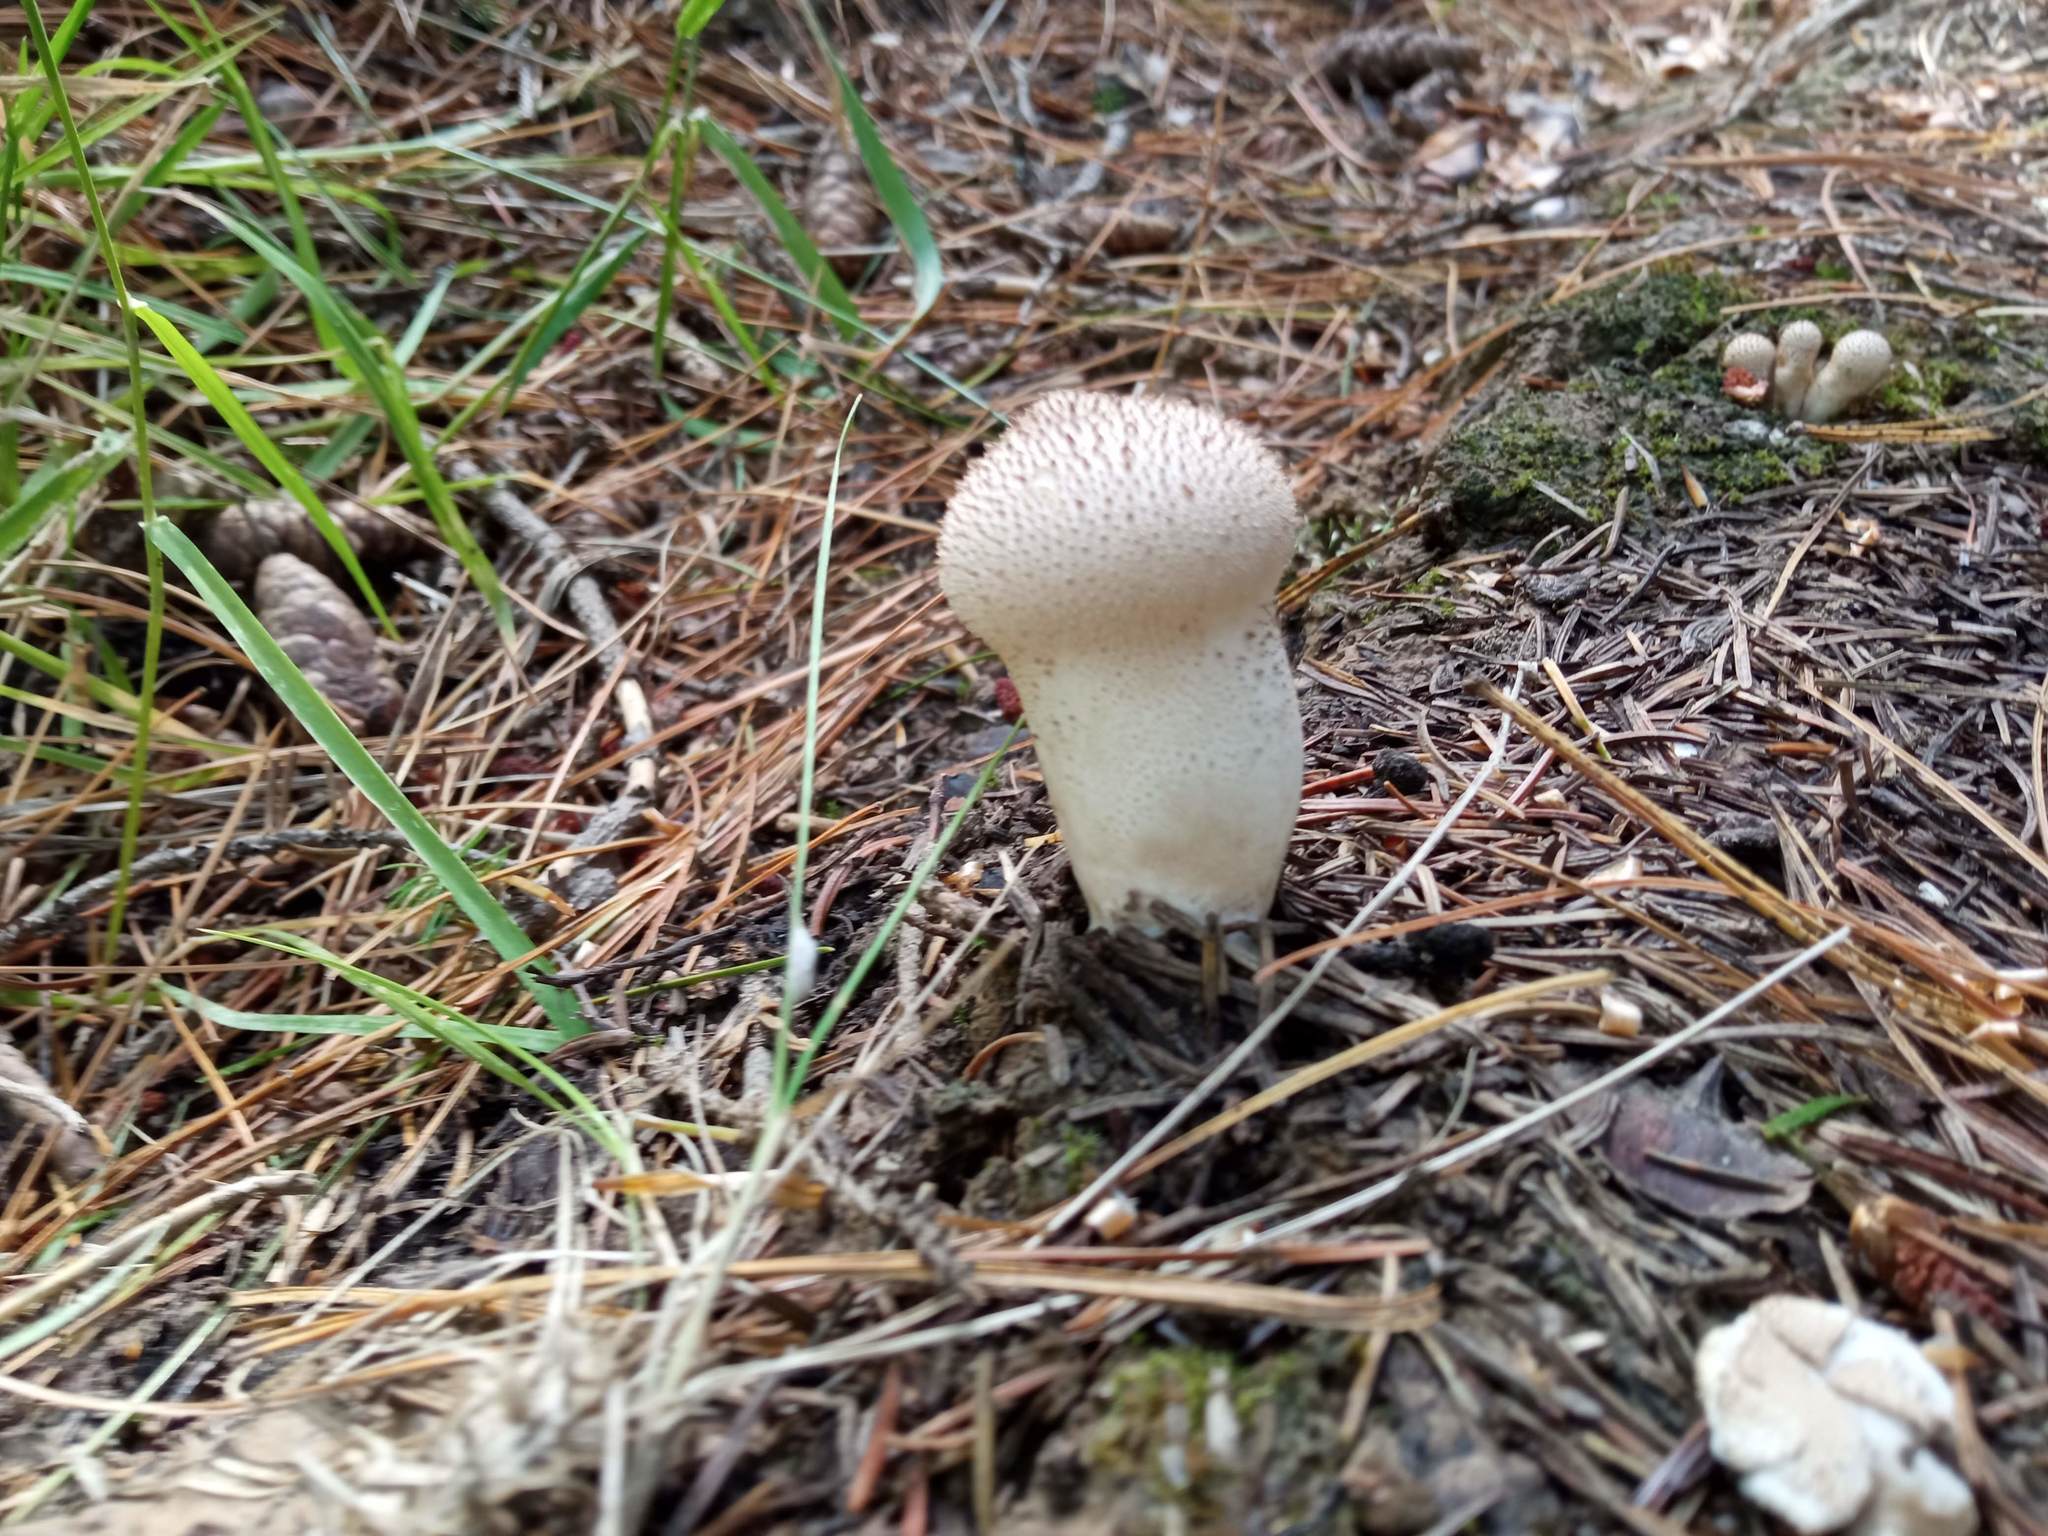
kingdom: Fungi
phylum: Basidiomycota
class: Agaricomycetes
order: Agaricales
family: Lycoperdaceae
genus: Lycoperdon
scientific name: Lycoperdon perlatum
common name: Common puffball
